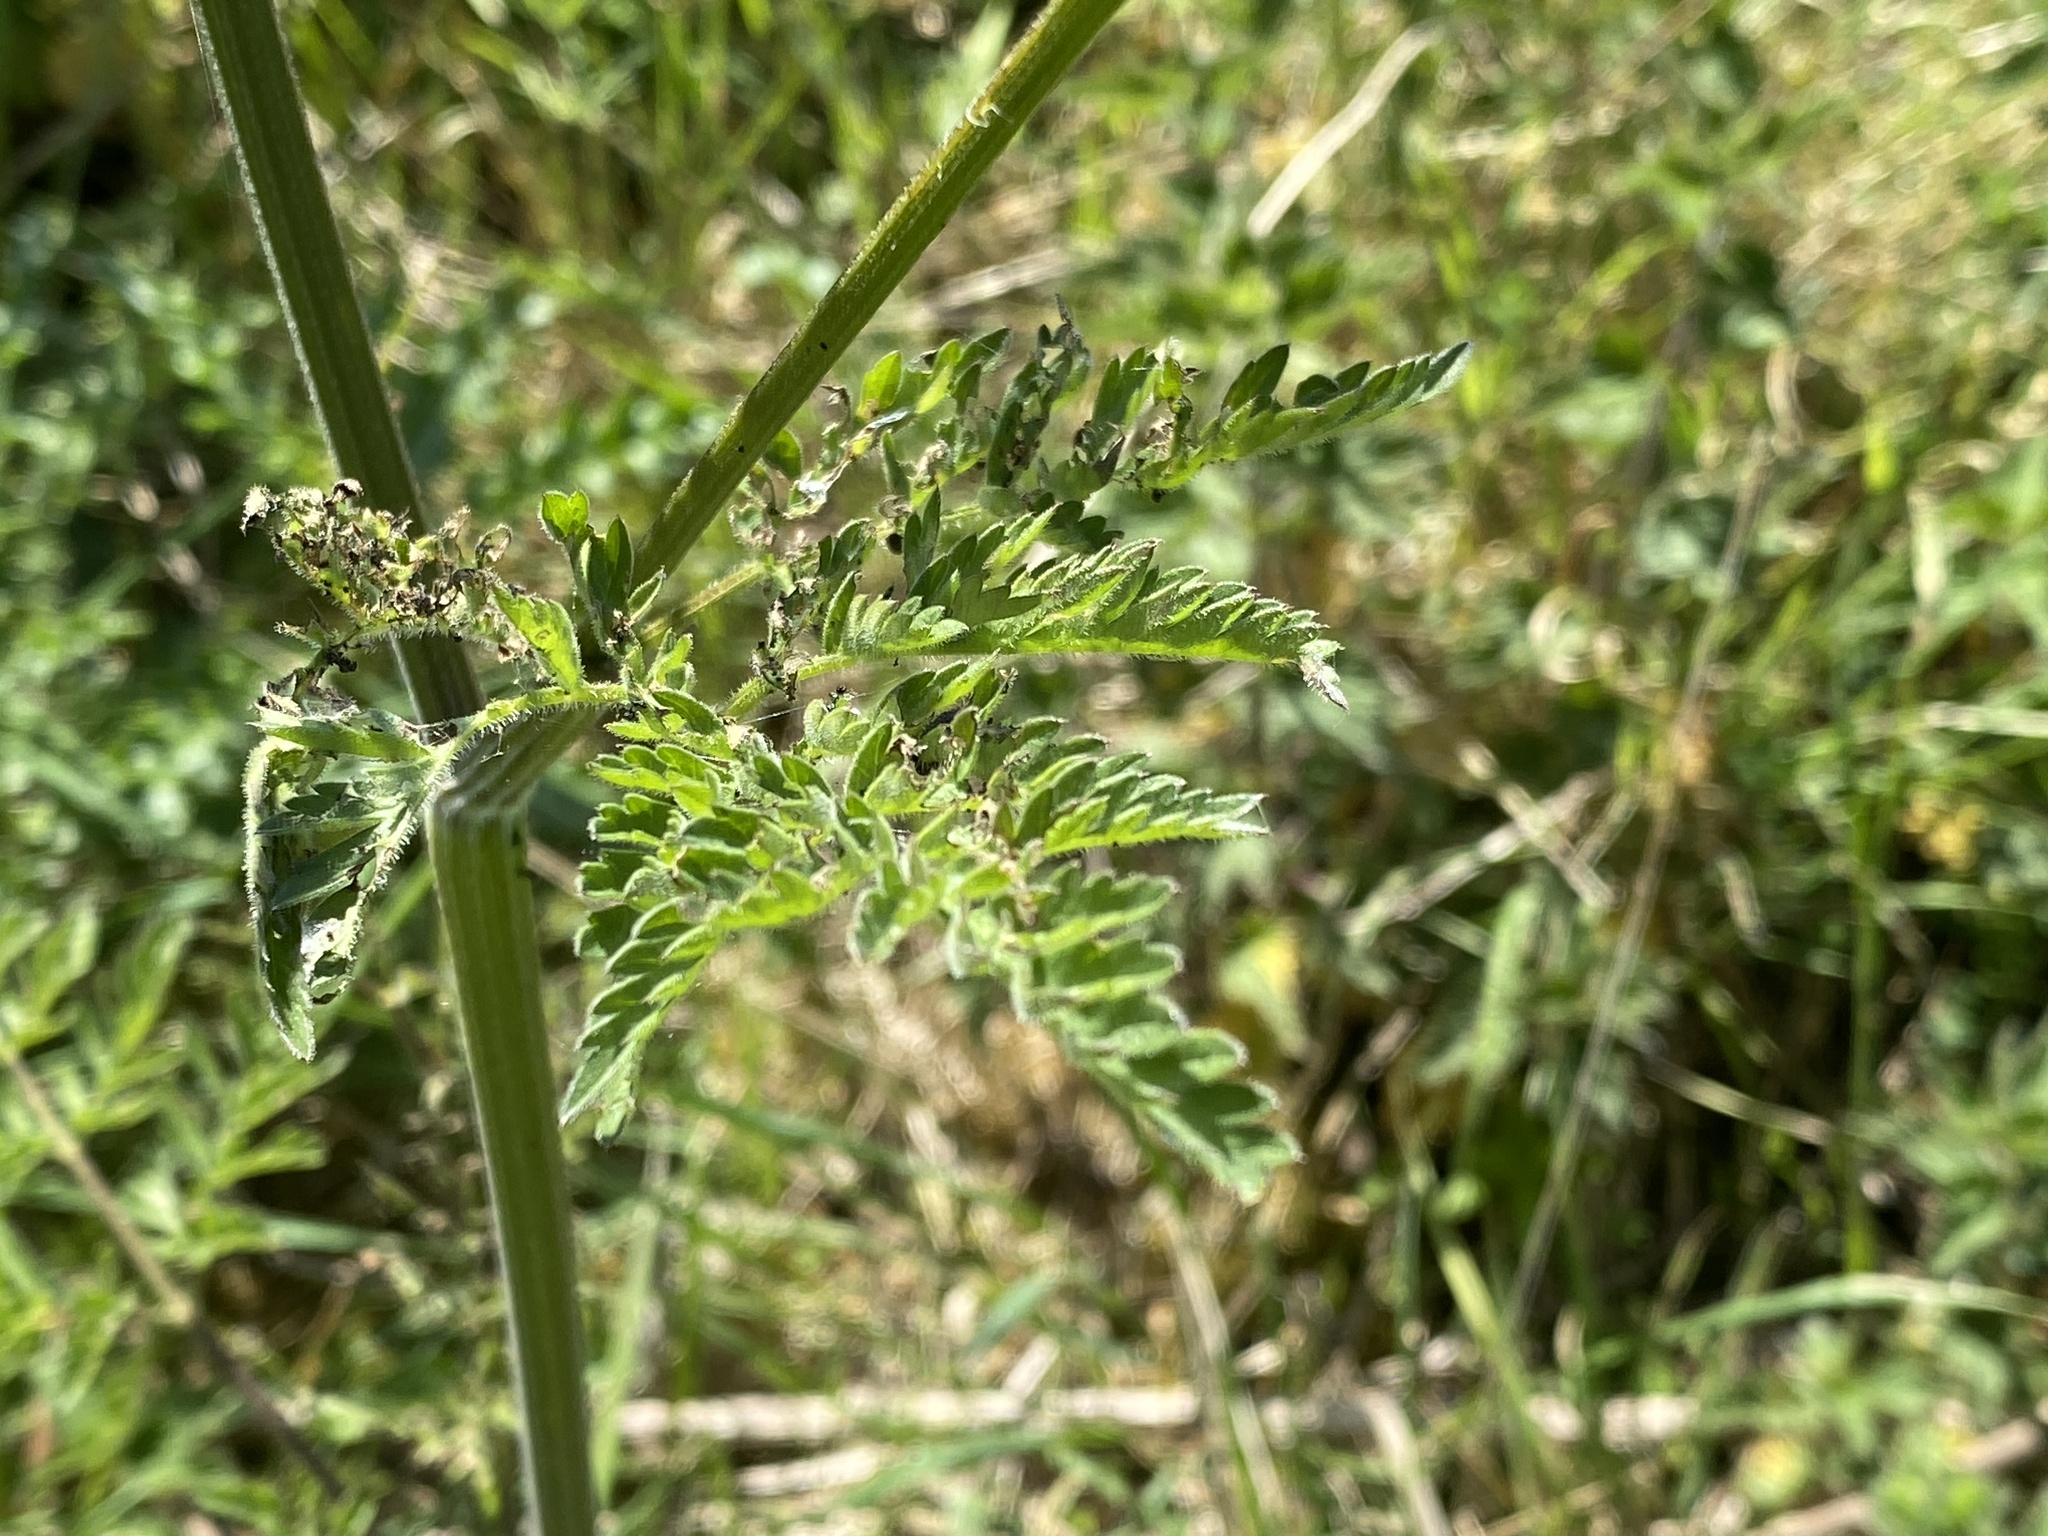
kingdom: Plantae
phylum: Tracheophyta
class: Magnoliopsida
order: Apiales
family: Apiaceae
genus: Anthriscus
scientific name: Anthriscus sylvestris
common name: Cow parsley
